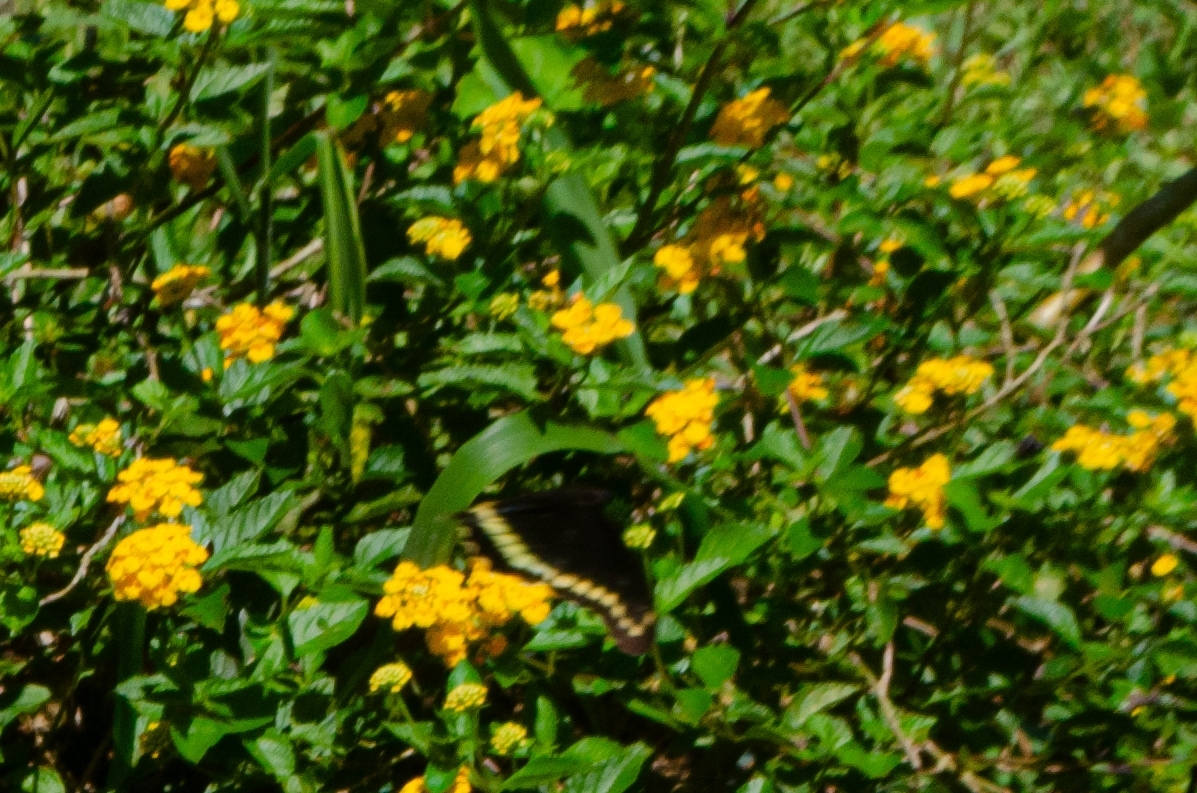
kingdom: Animalia
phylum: Arthropoda
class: Insecta
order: Lepidoptera
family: Papilionidae
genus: Battus
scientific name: Battus polydamas
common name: Polydamas swallowtail
